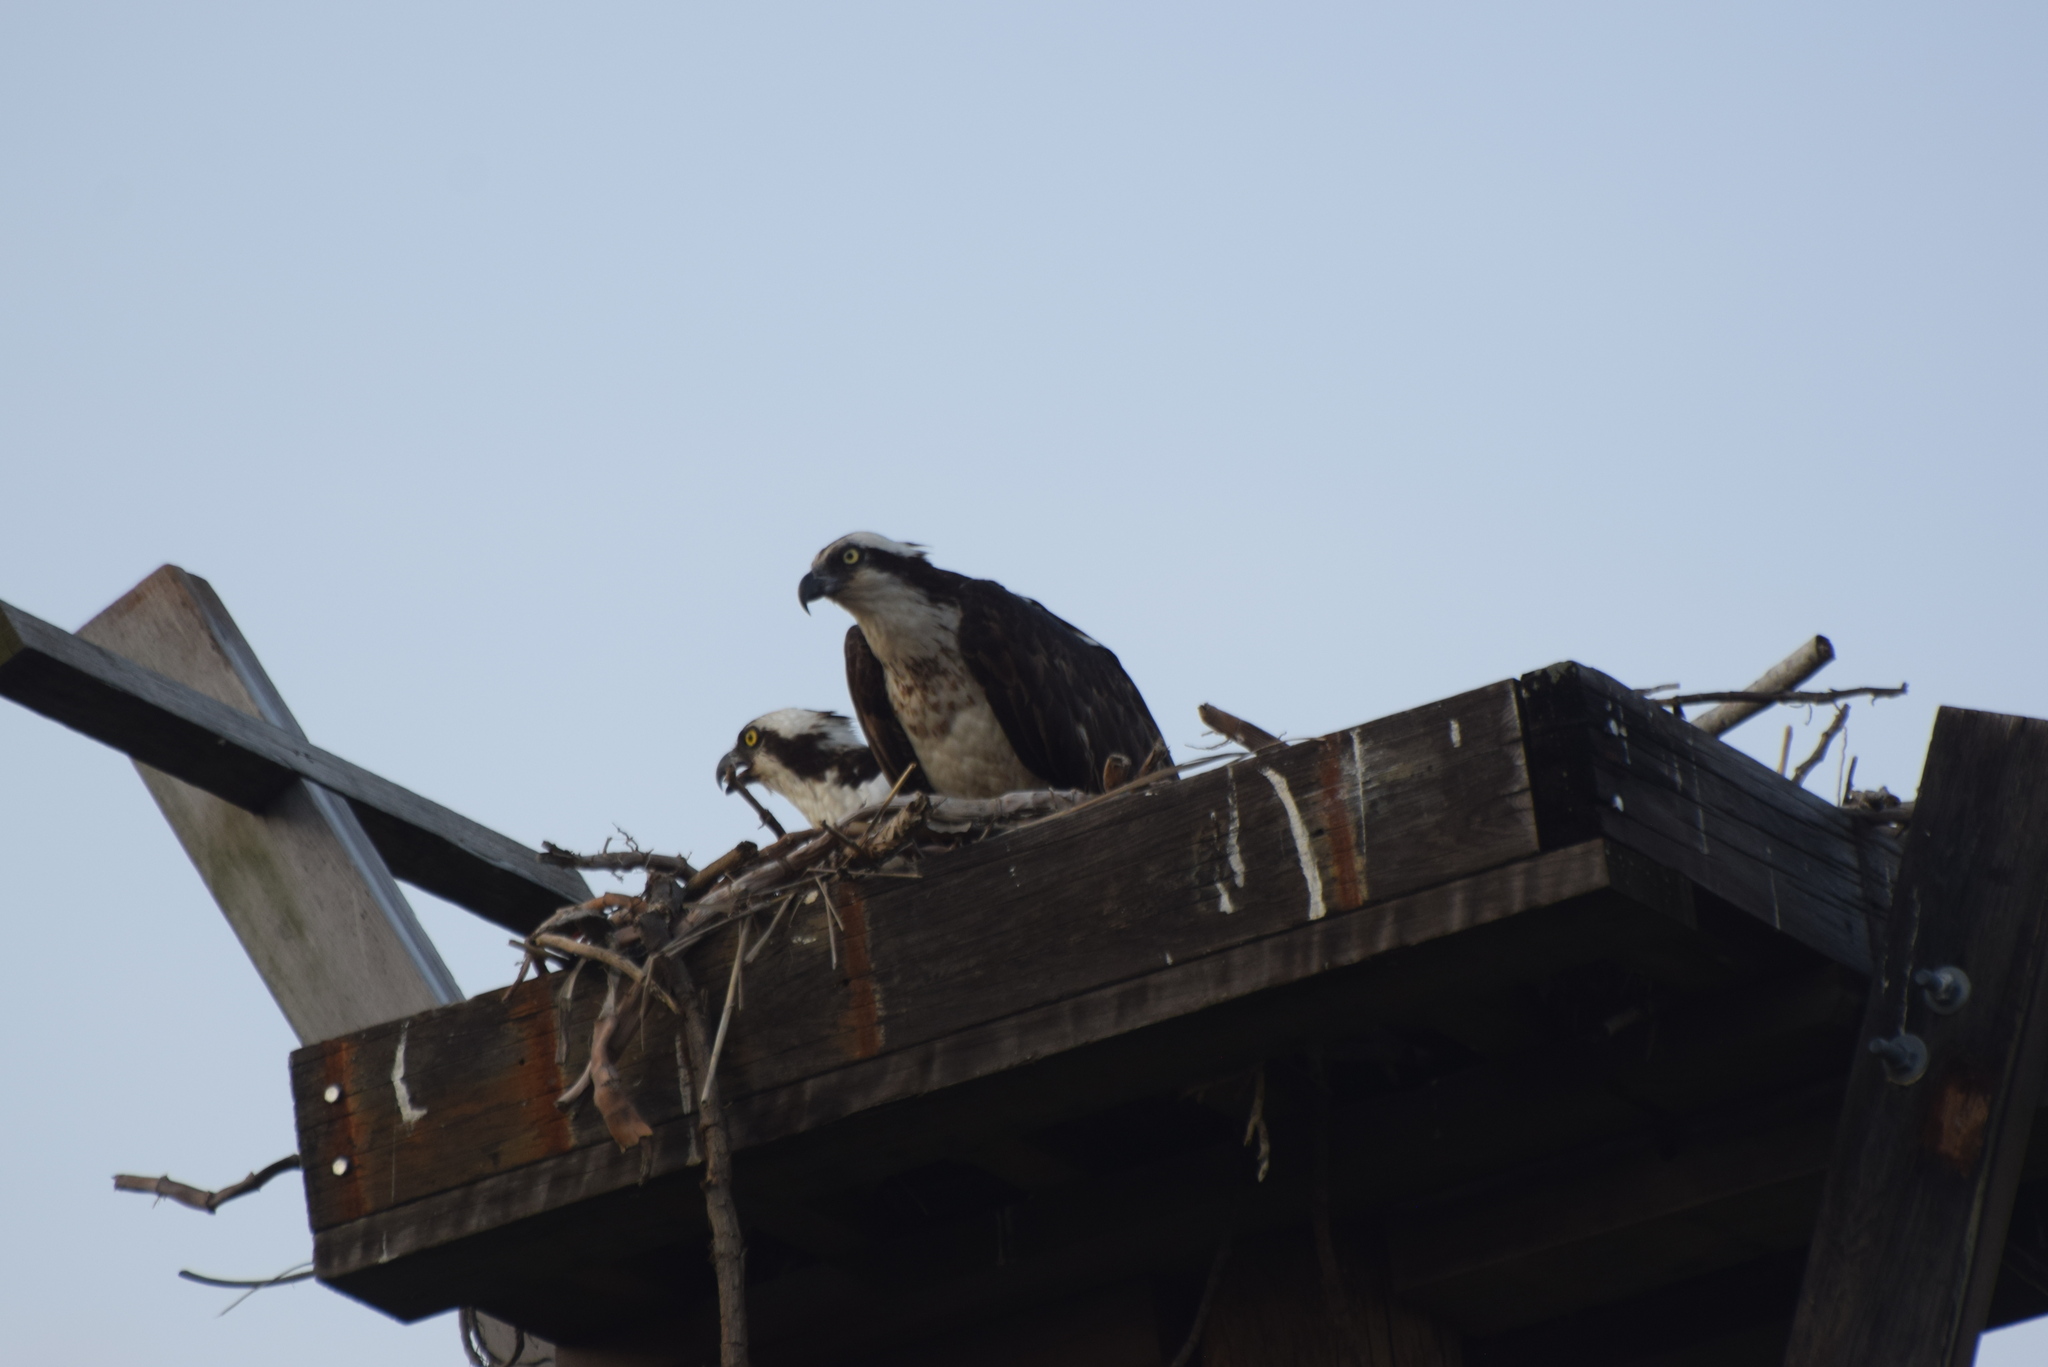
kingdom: Animalia
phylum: Chordata
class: Aves
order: Accipitriformes
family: Pandionidae
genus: Pandion
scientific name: Pandion haliaetus
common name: Osprey
